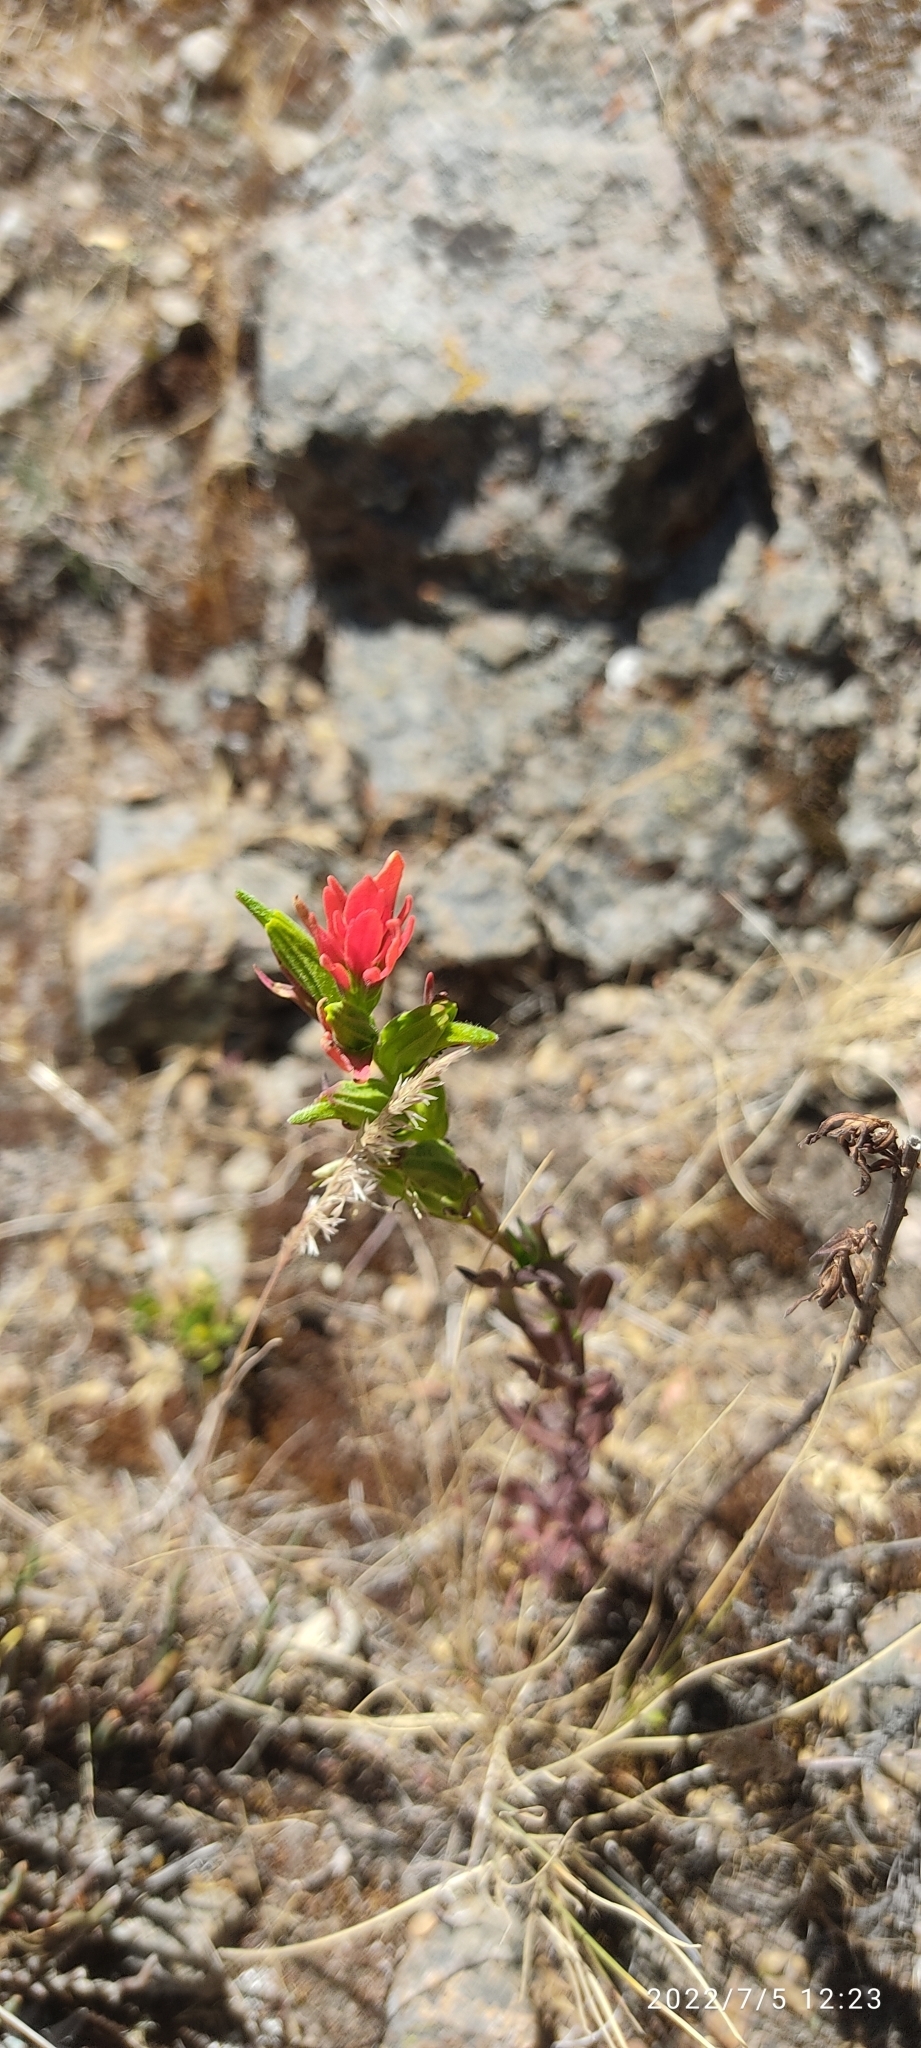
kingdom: Plantae
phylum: Tracheophyta
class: Magnoliopsida
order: Lamiales
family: Orobanchaceae
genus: Castilleja
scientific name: Castilleja nubigena
